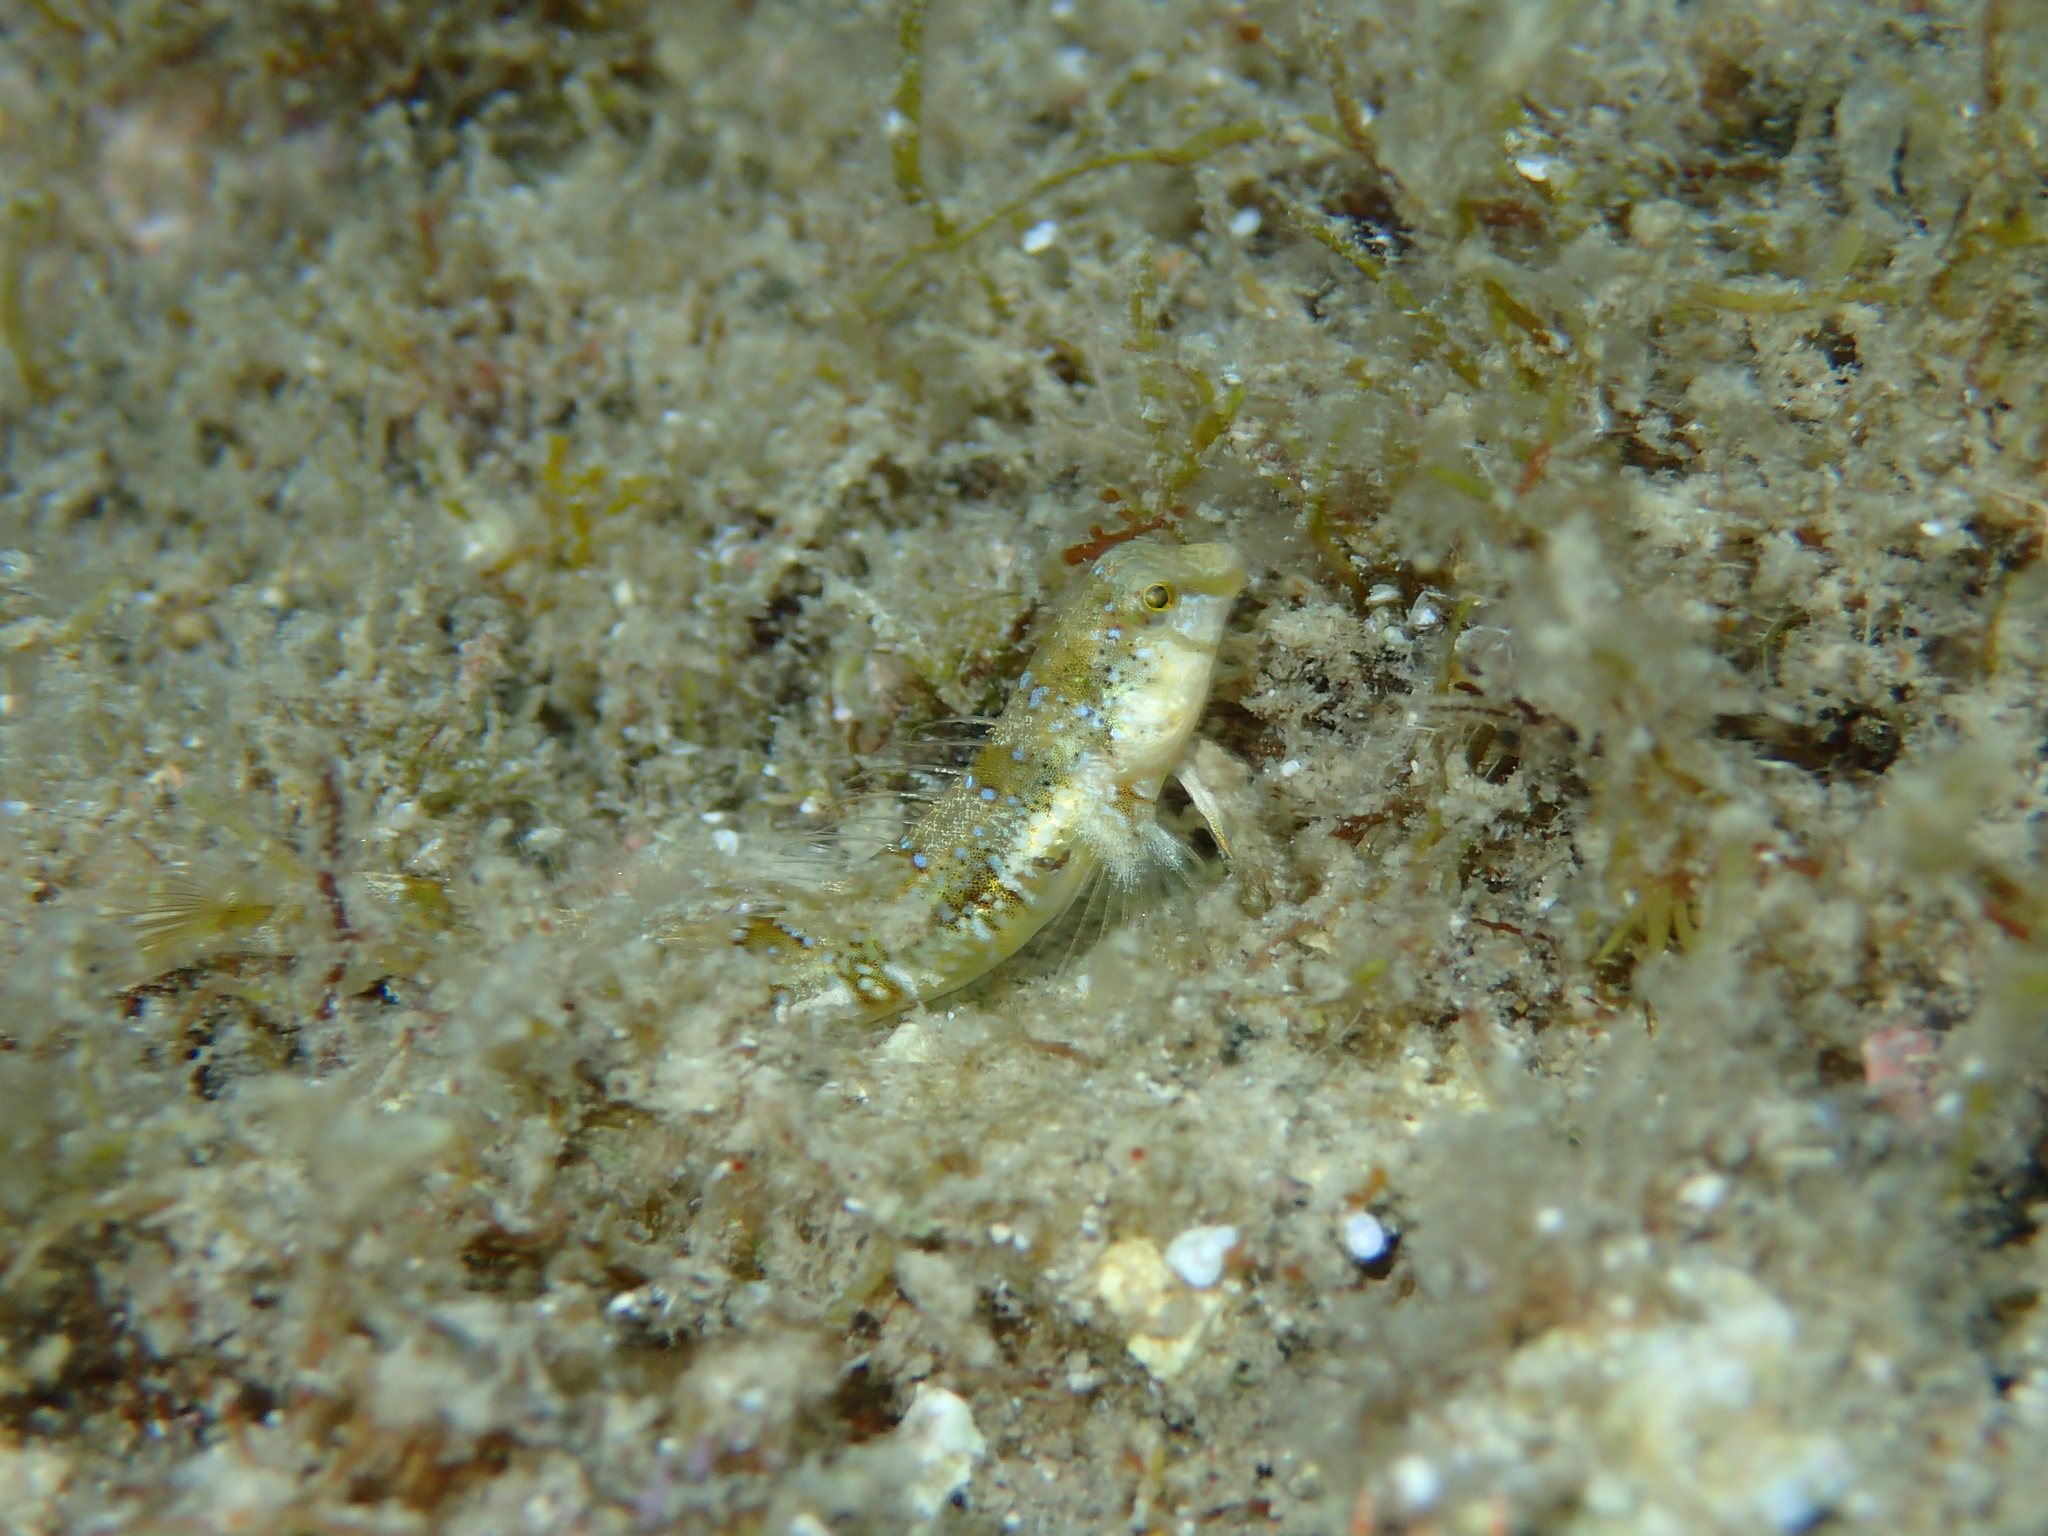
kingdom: Animalia
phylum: Chordata
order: Perciformes
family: Blenniidae
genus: Microlipophrys
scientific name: Microlipophrys dalmatinus
